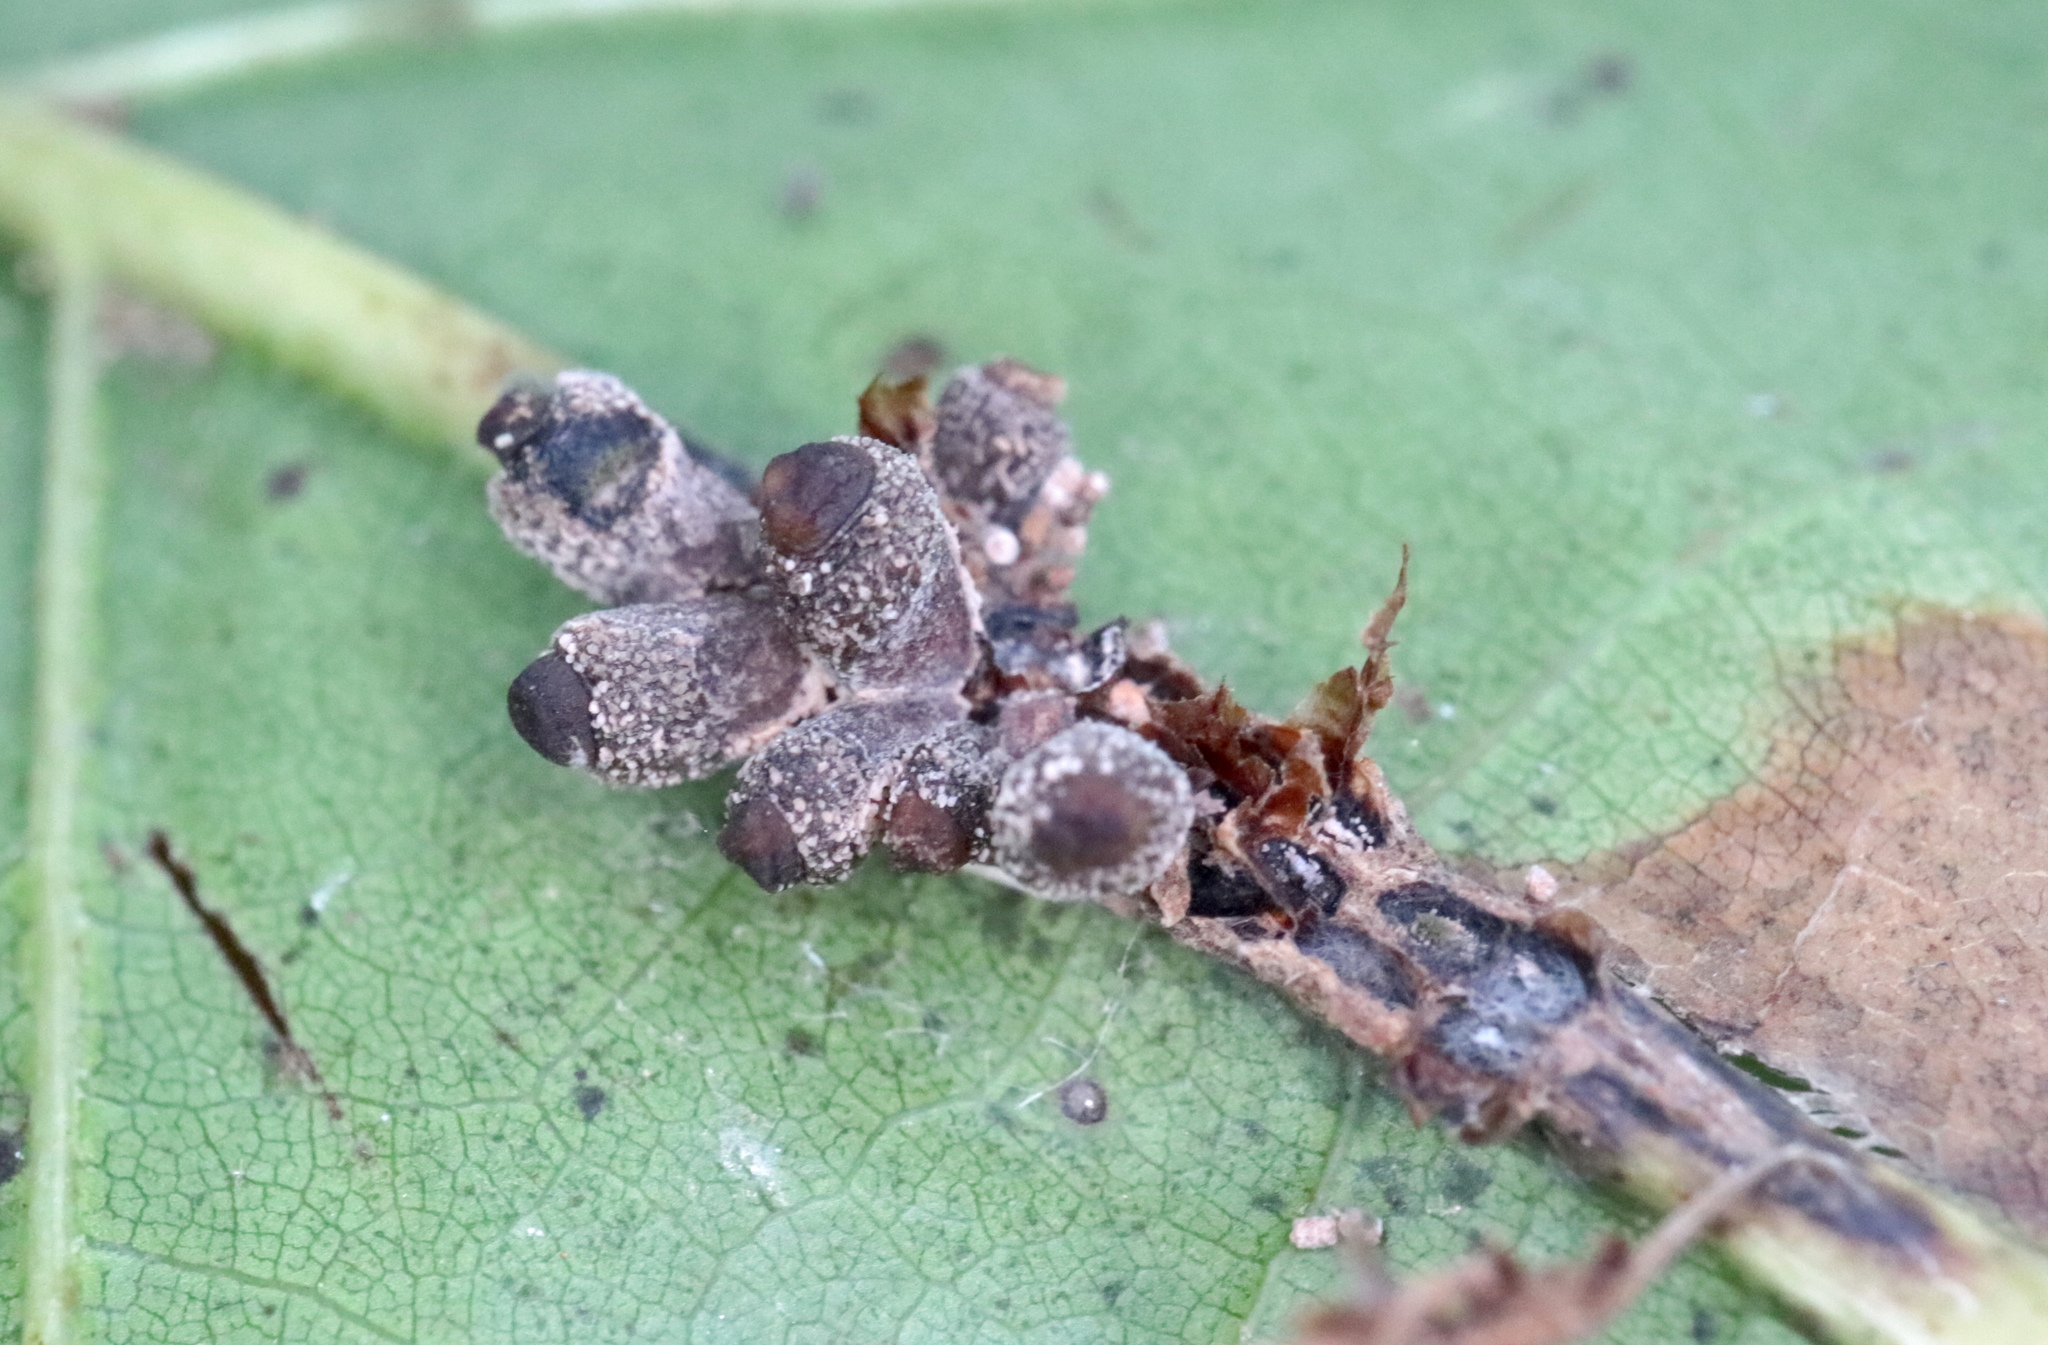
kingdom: Animalia
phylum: Arthropoda
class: Insecta
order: Hymenoptera
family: Cynipidae
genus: Kokkocynips
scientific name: Kokkocynips decidua
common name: Oak wheat gall
